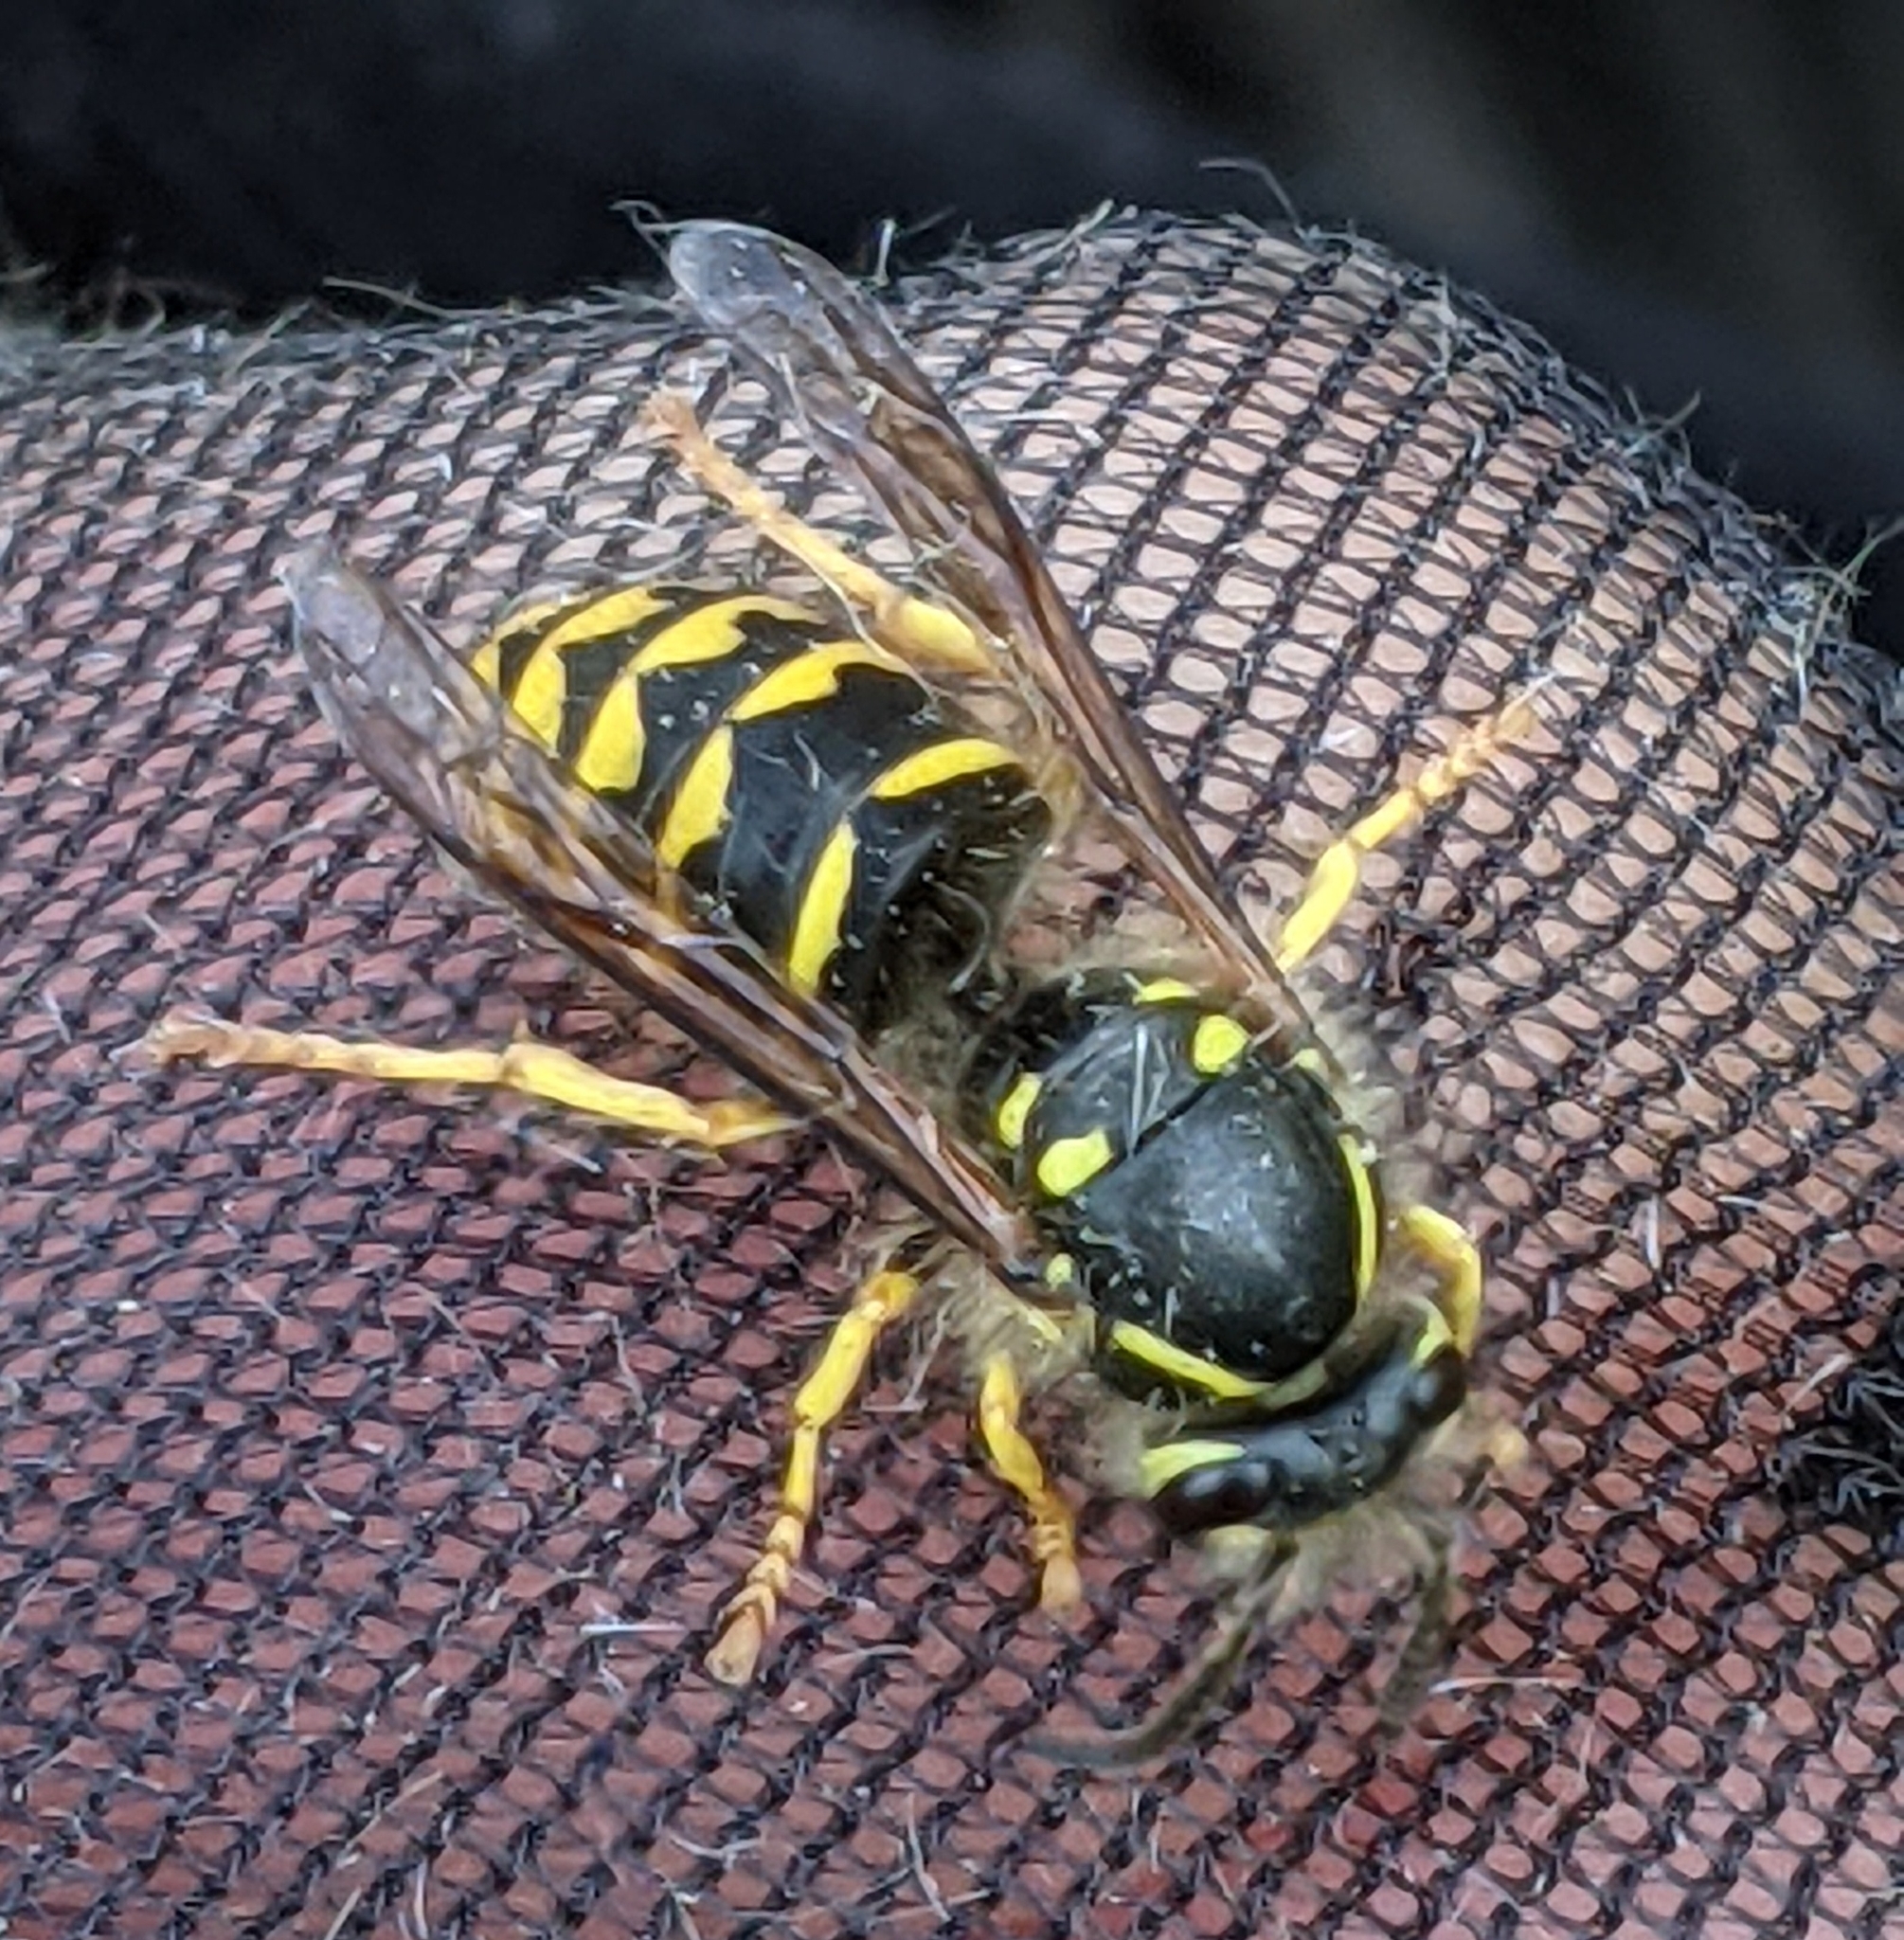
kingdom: Animalia
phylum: Arthropoda
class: Insecta
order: Hymenoptera
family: Vespidae
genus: Dolichovespula
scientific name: Dolichovespula arenaria
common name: Aerial yellowjacket
